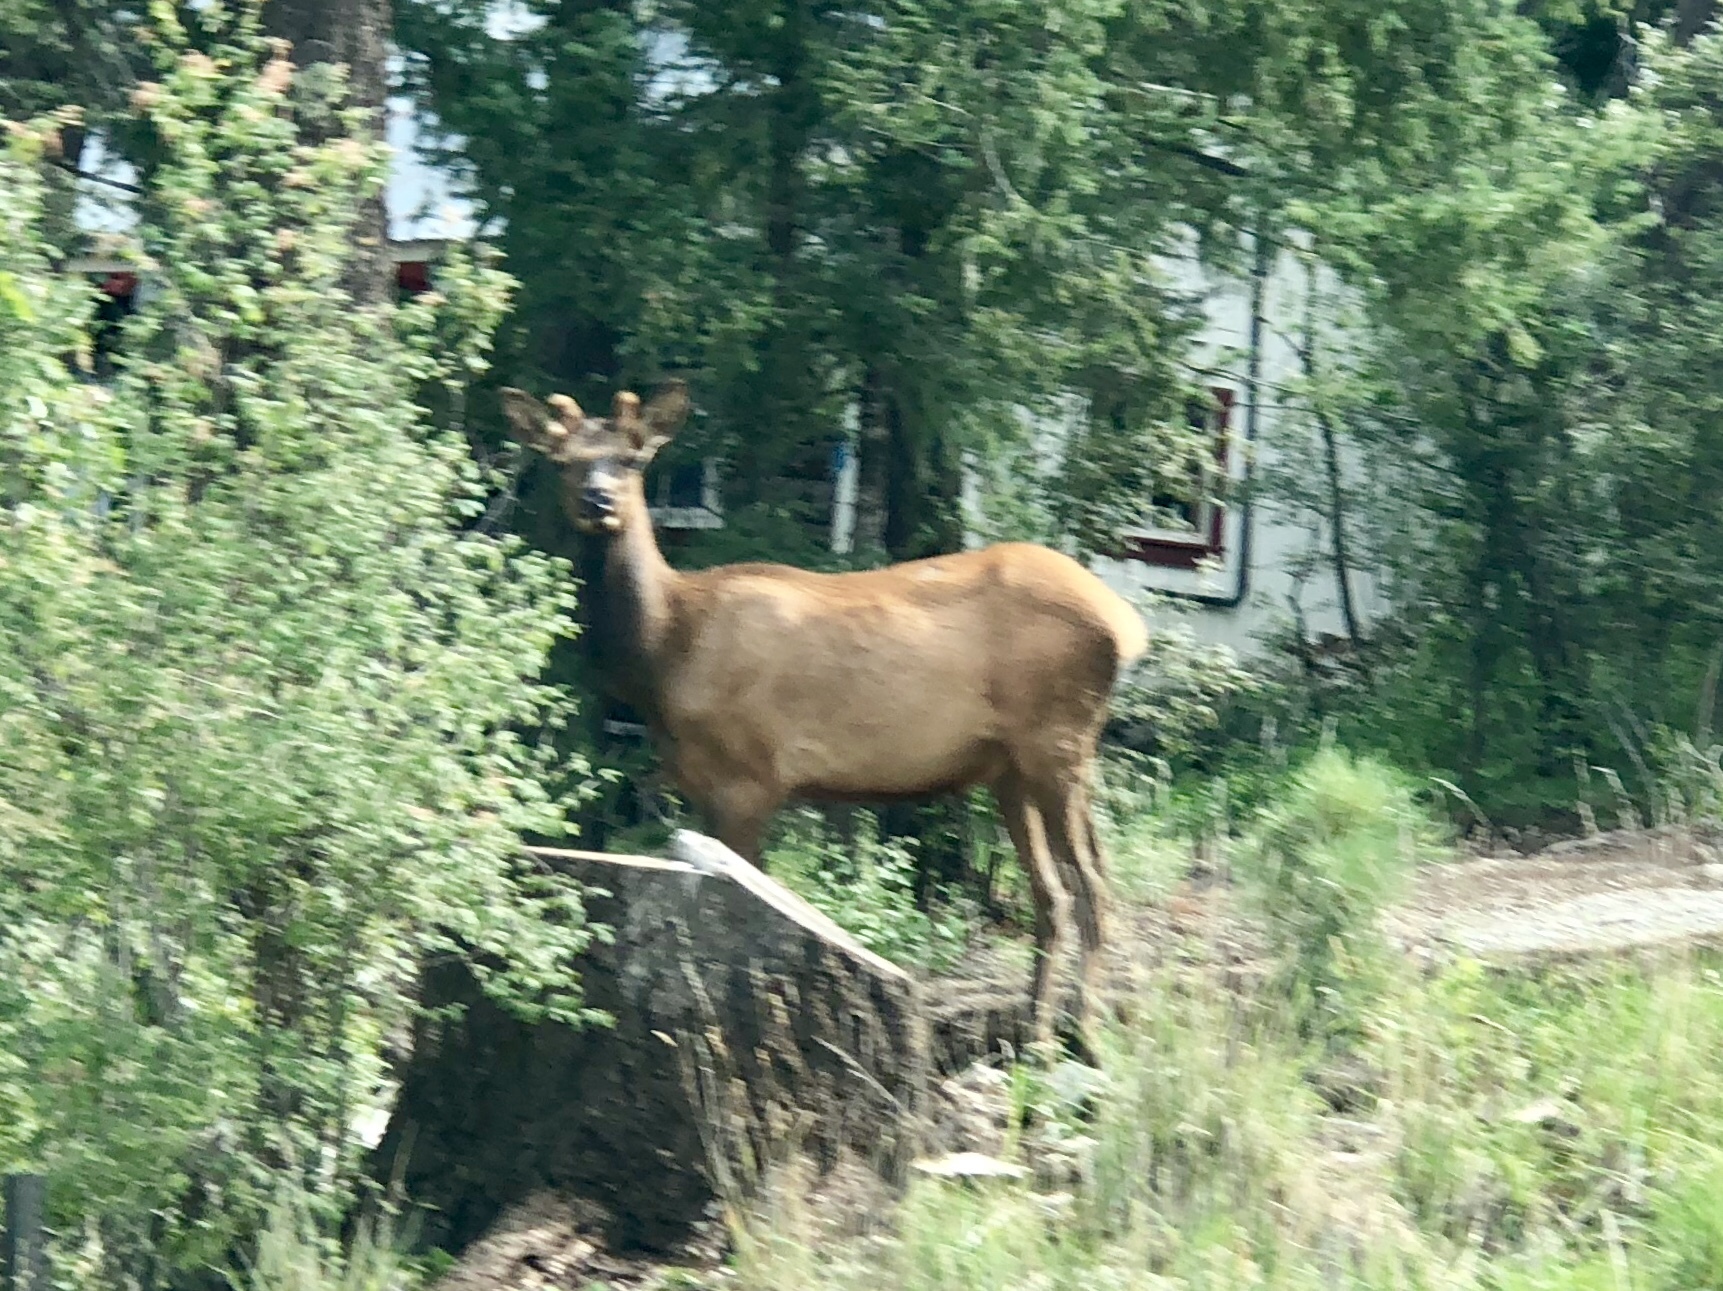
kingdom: Animalia
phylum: Chordata
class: Mammalia
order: Artiodactyla
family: Cervidae
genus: Cervus
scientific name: Cervus elaphus
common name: Red deer
